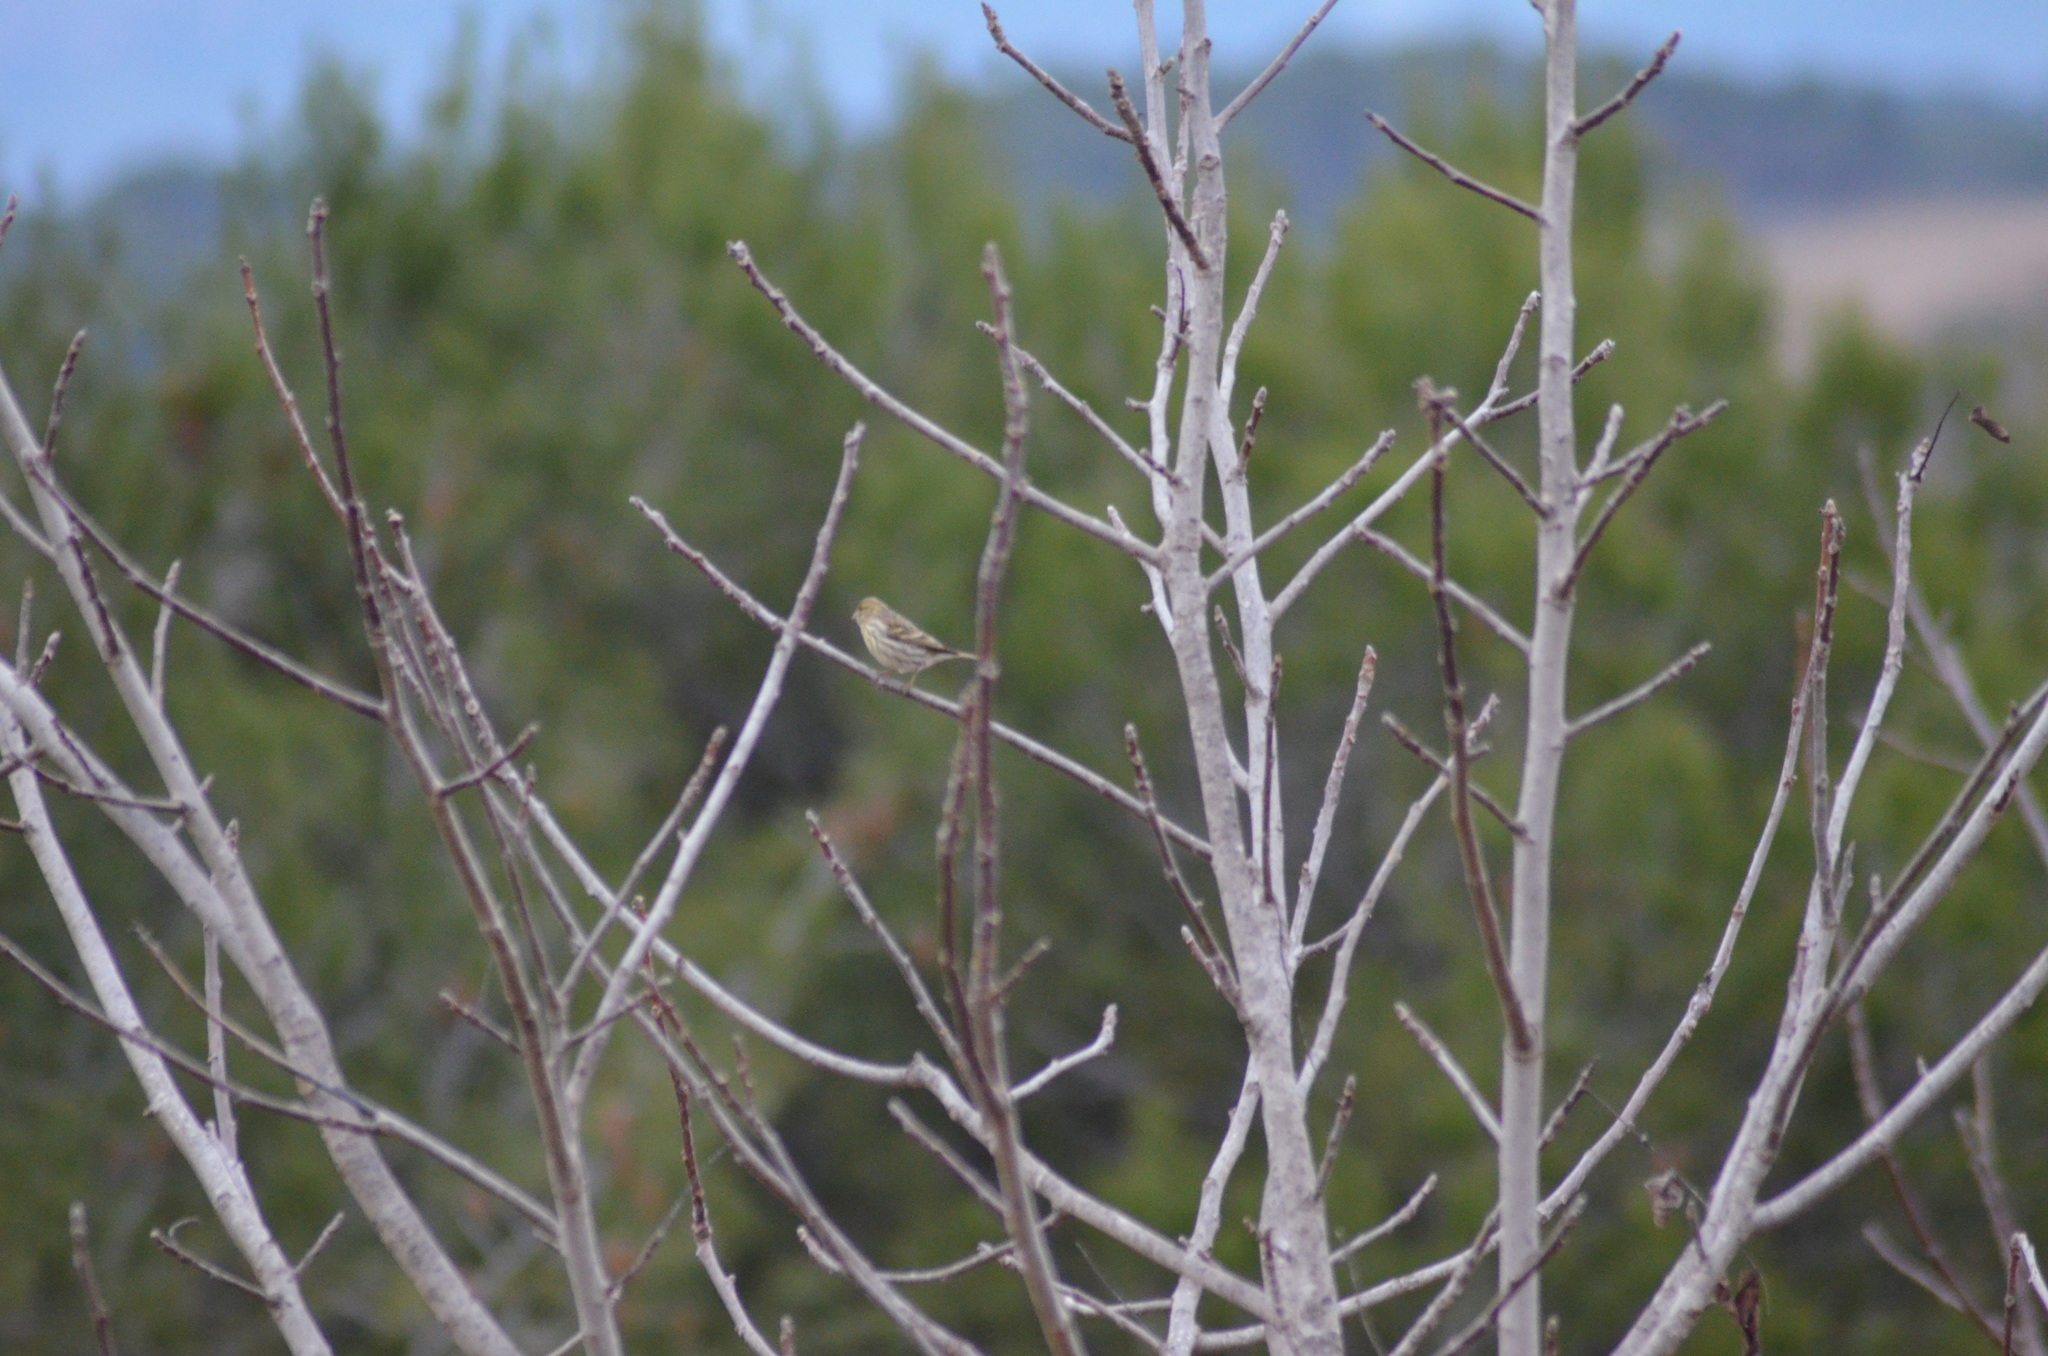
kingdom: Animalia
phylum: Chordata
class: Aves
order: Passeriformes
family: Fringillidae
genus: Serinus
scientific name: Serinus serinus
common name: European serin
